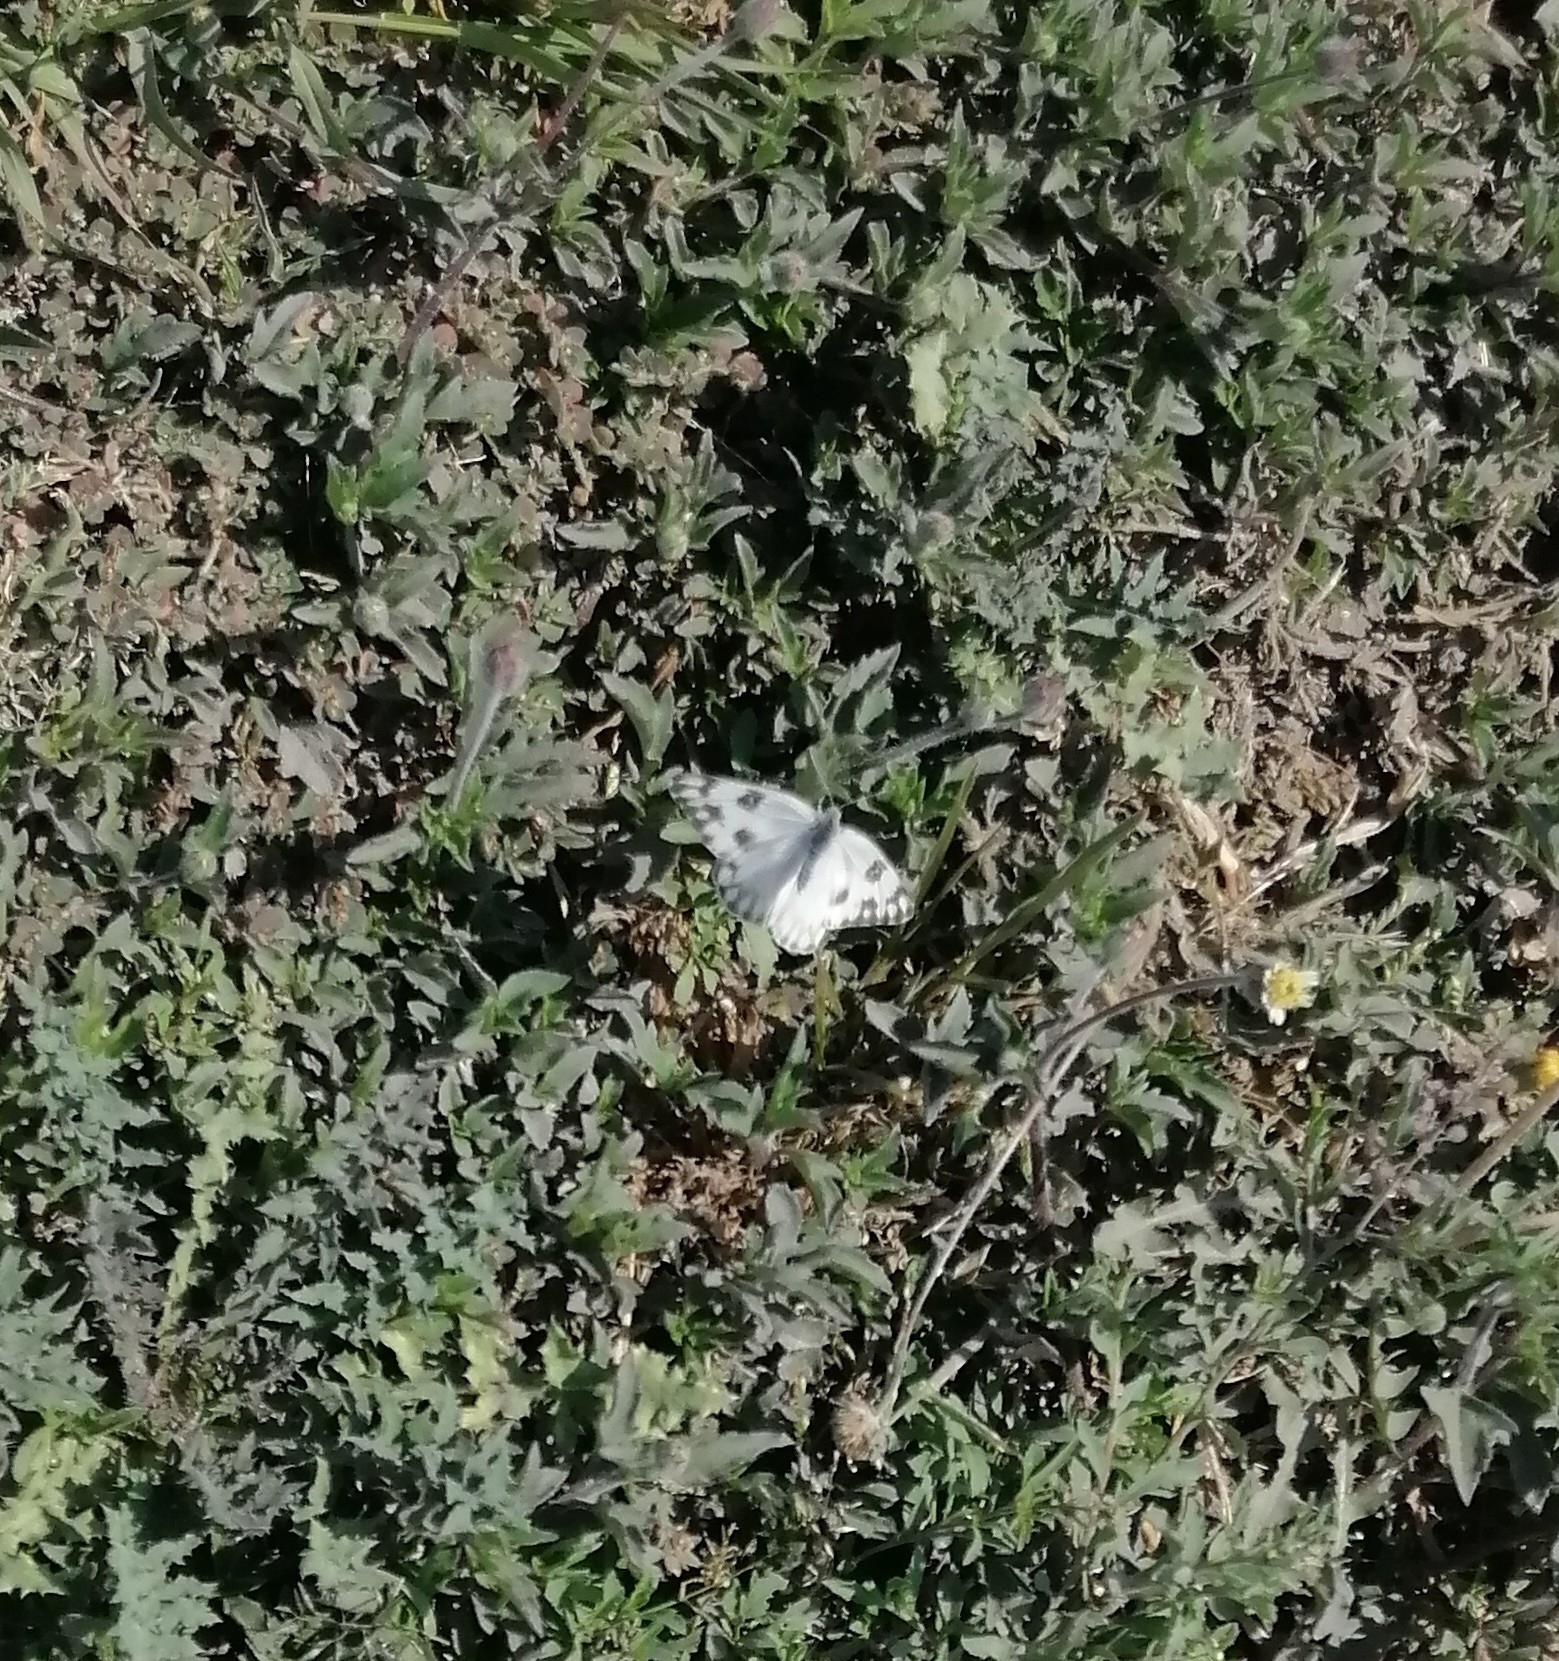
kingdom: Animalia
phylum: Arthropoda
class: Insecta
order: Lepidoptera
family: Pieridae
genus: Pontia
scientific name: Pontia protodice
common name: Checkered white
